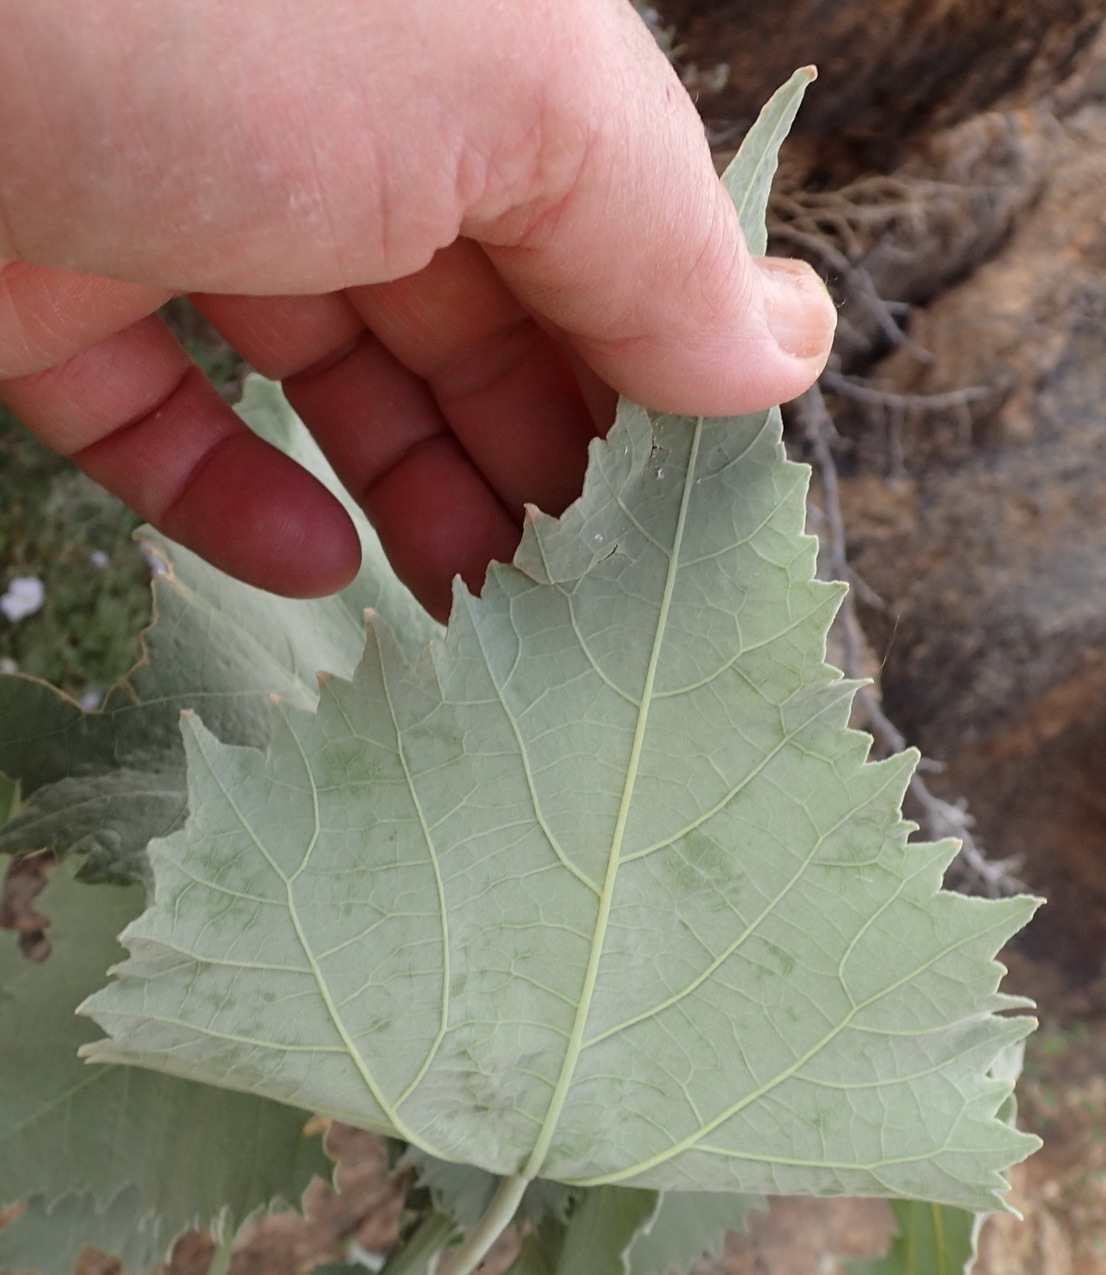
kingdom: Plantae
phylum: Tracheophyta
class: Magnoliopsida
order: Malvales
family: Malvaceae
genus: Abutilon
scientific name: Abutilon pycnodon
